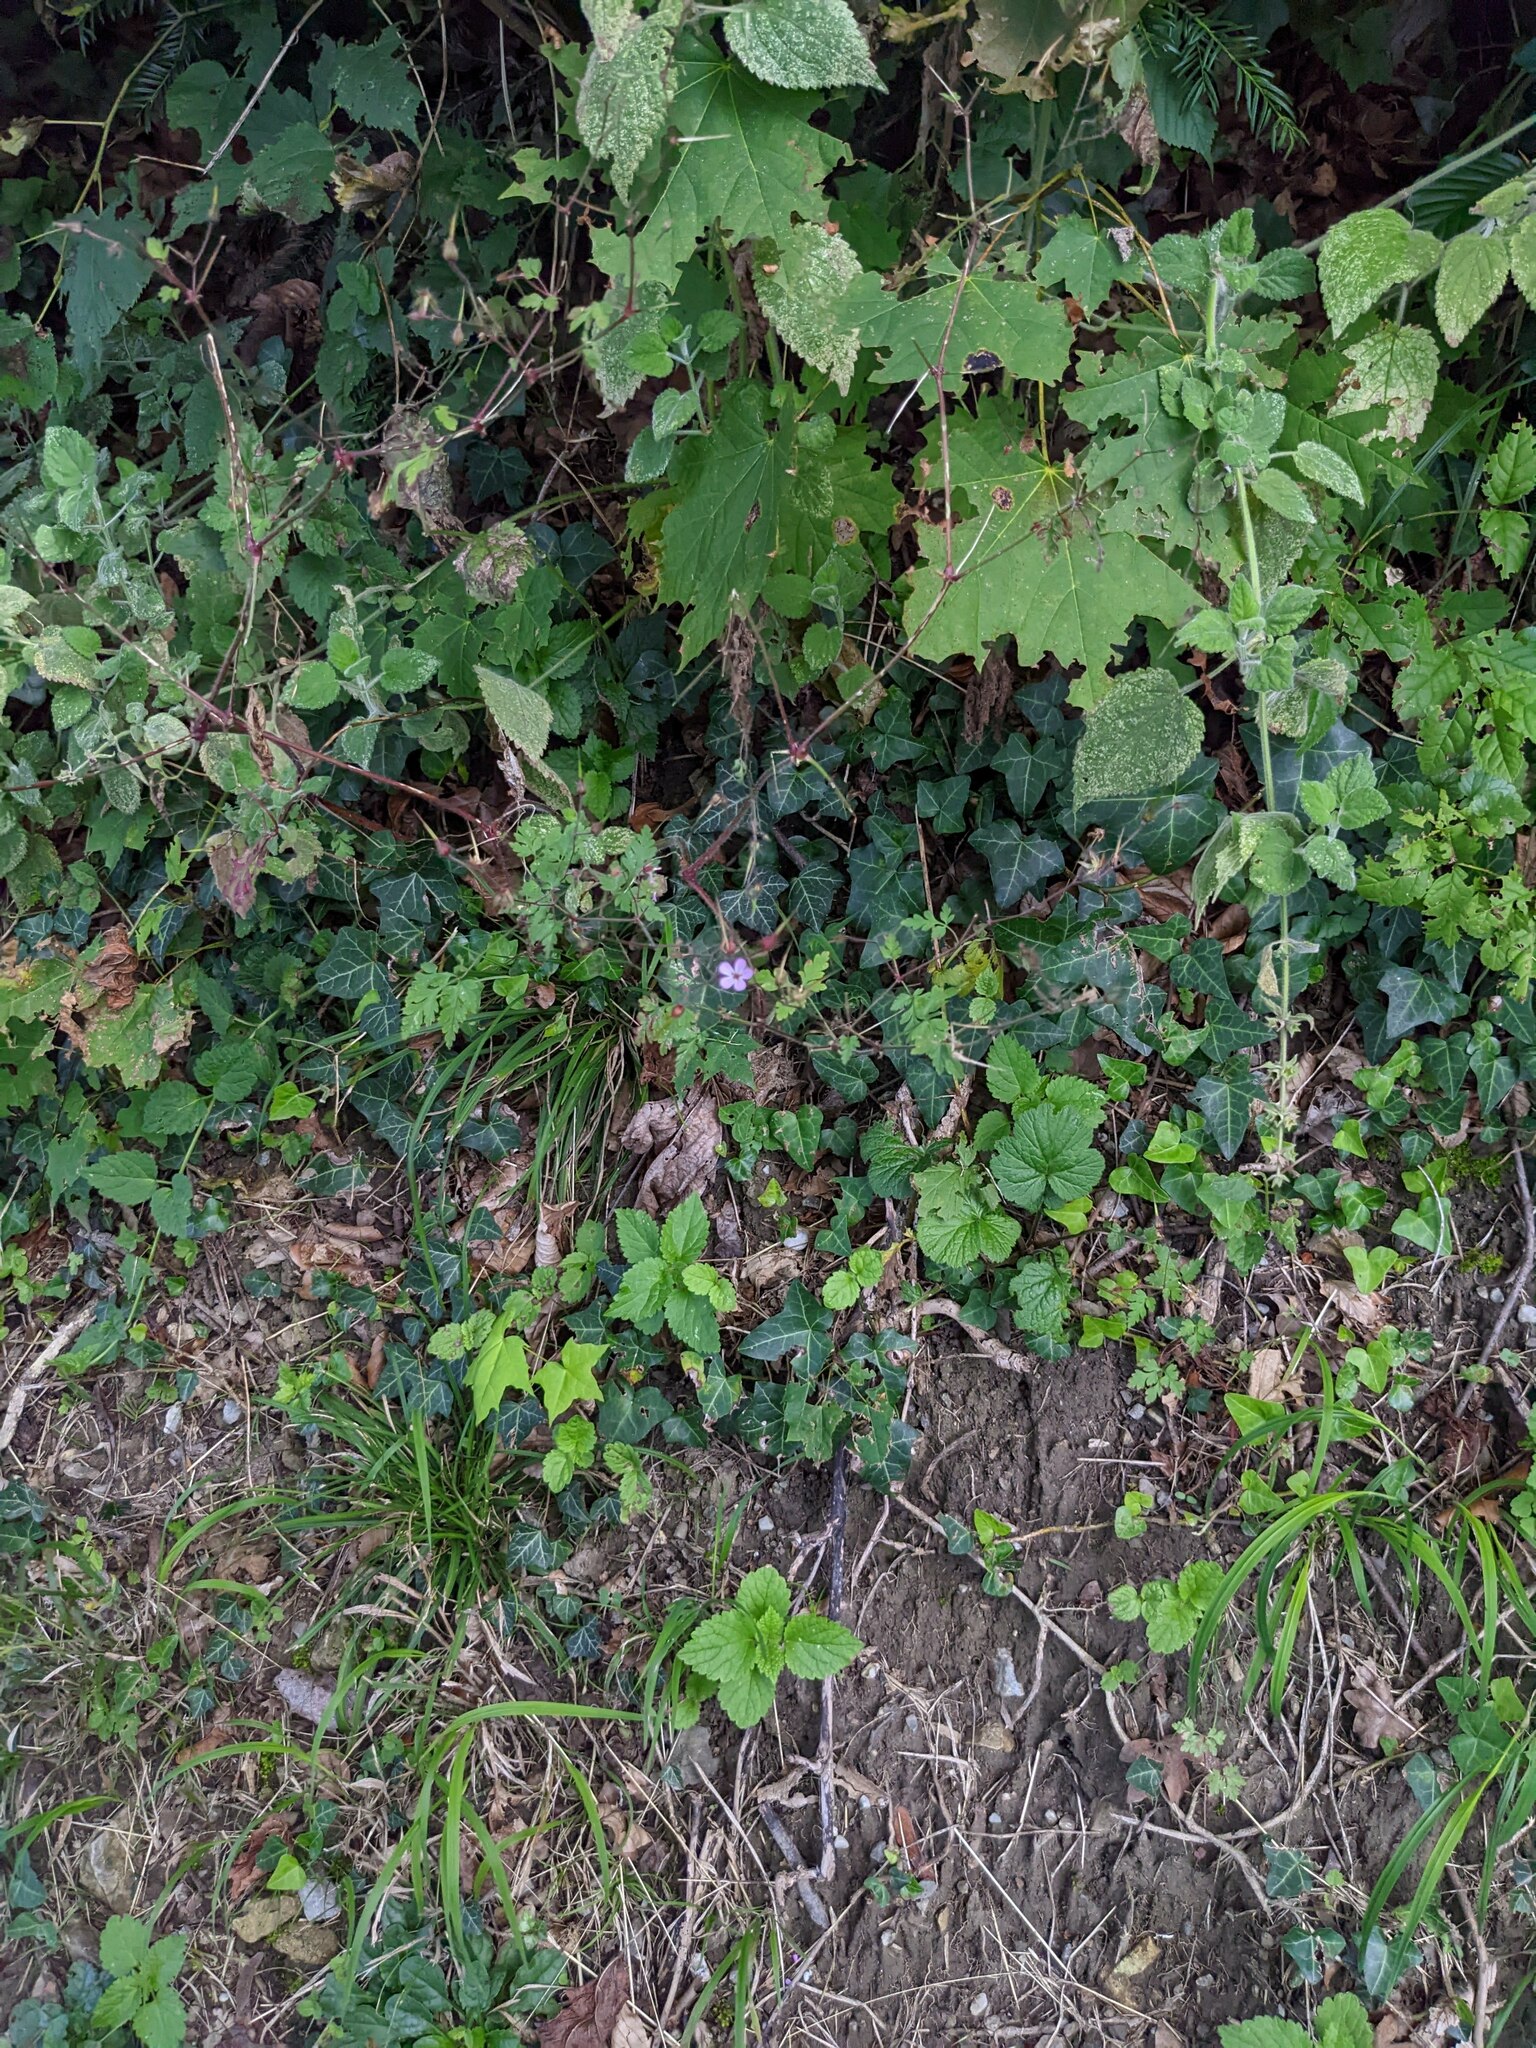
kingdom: Plantae
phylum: Tracheophyta
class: Magnoliopsida
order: Apiales
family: Araliaceae
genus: Hedera
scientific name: Hedera helix
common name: Ivy
